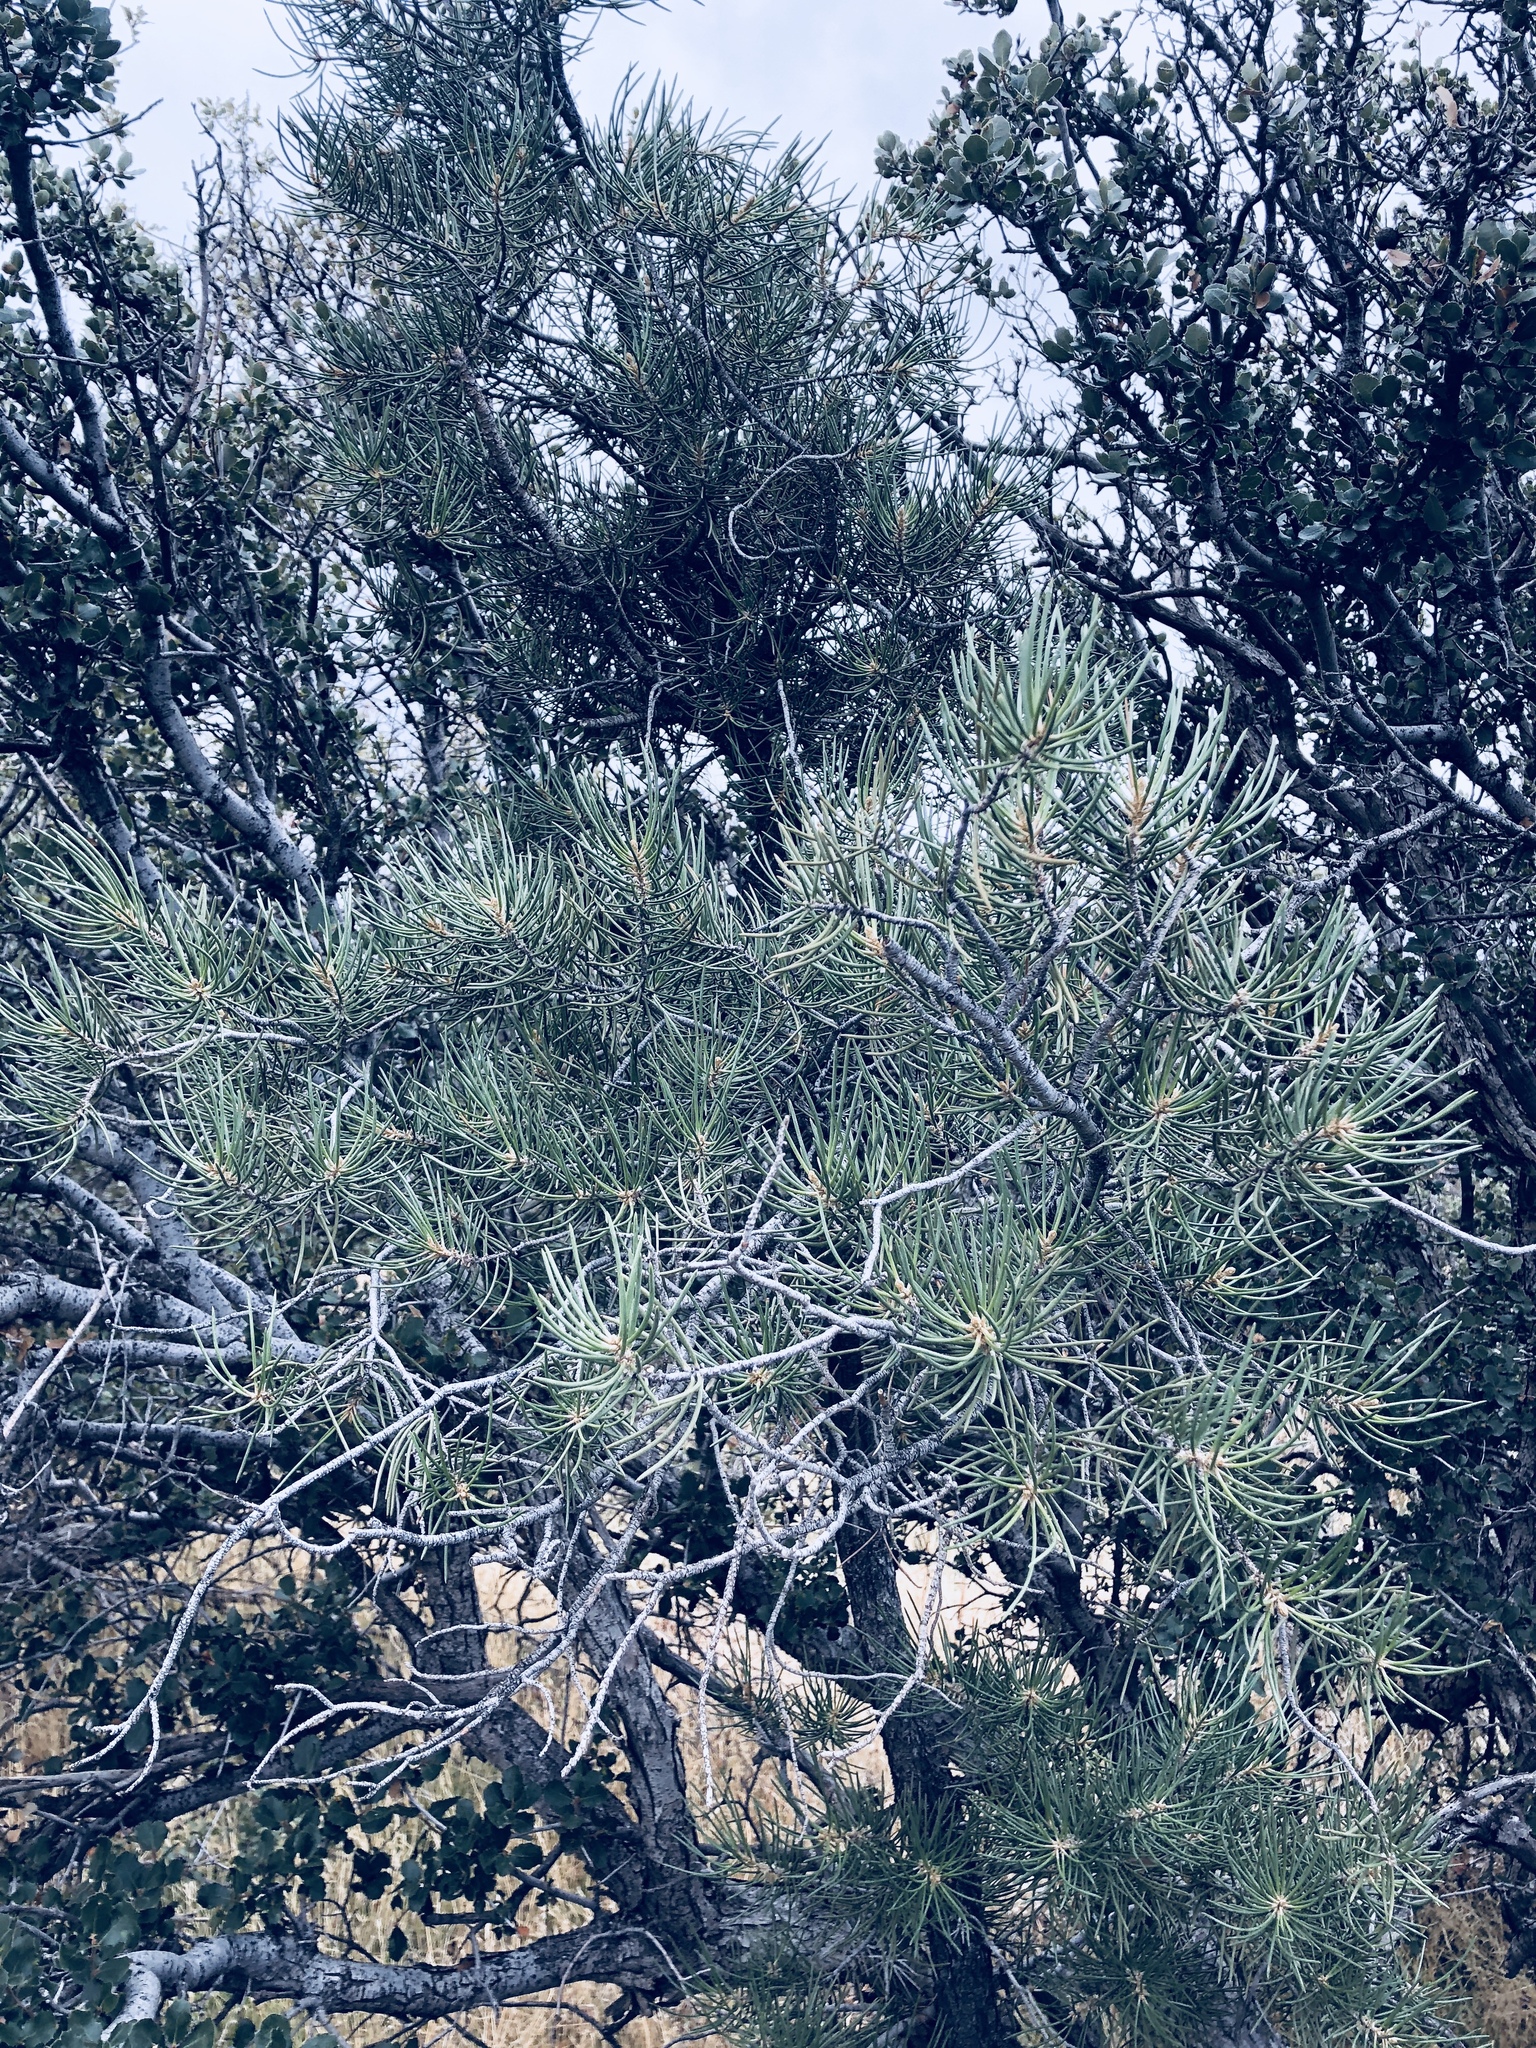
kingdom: Plantae
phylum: Tracheophyta
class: Pinopsida
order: Pinales
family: Pinaceae
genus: Pinus
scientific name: Pinus monophylla
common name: One-leaved nut pine
